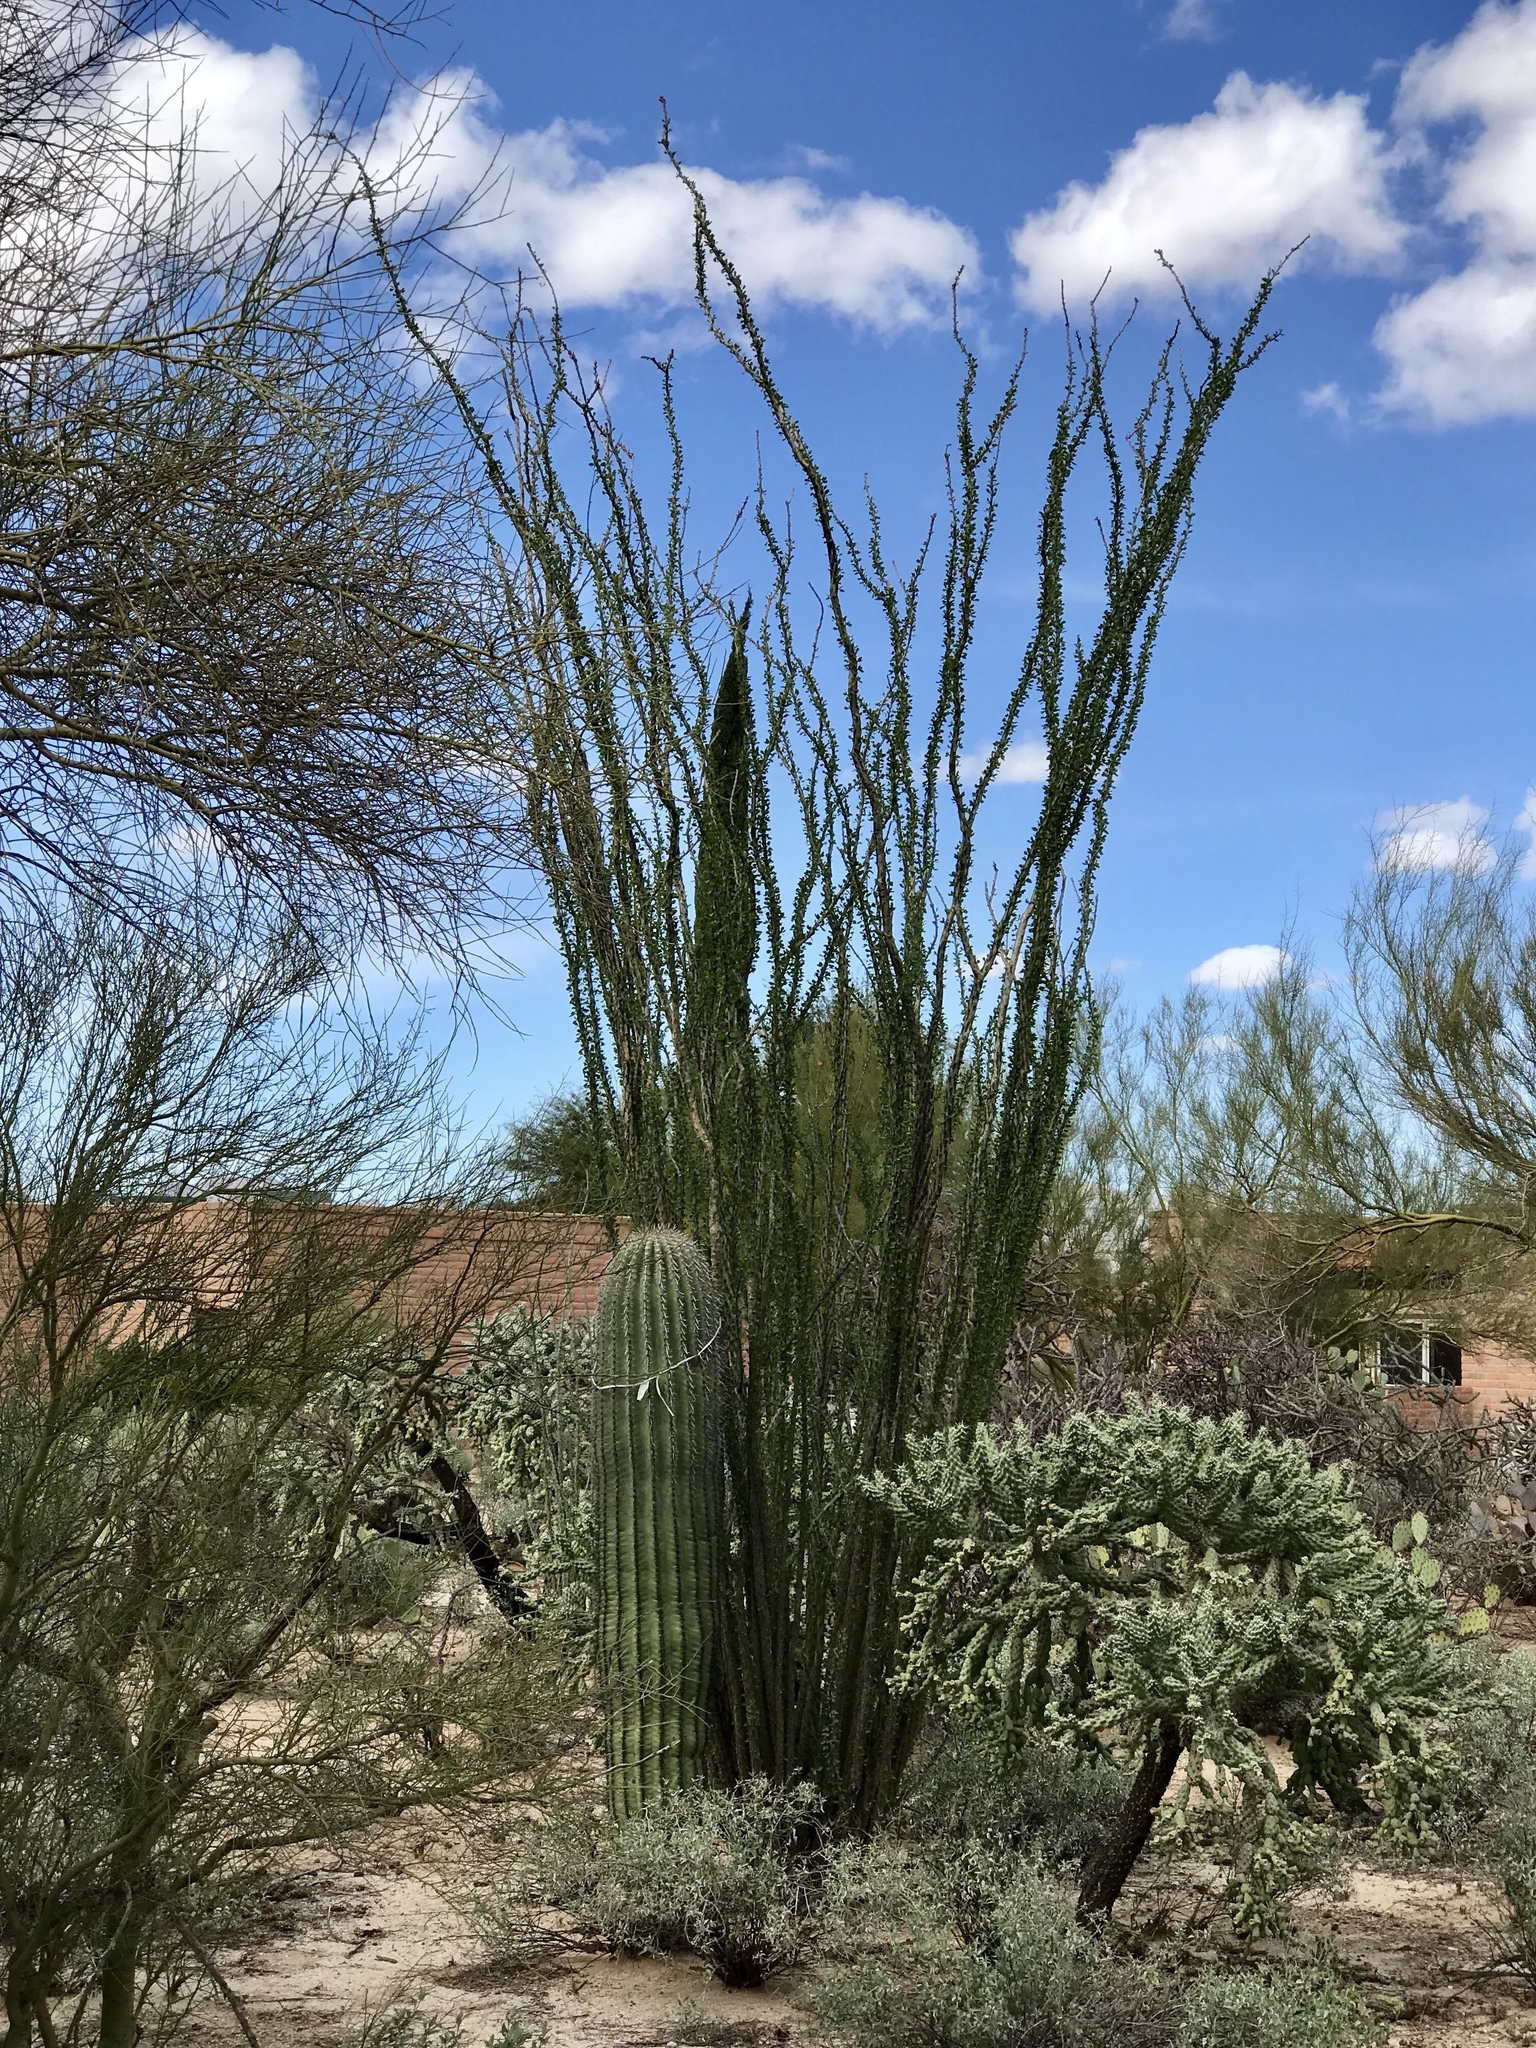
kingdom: Plantae
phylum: Tracheophyta
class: Magnoliopsida
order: Ericales
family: Fouquieriaceae
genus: Fouquieria
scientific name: Fouquieria splendens
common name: Vine-cactus
